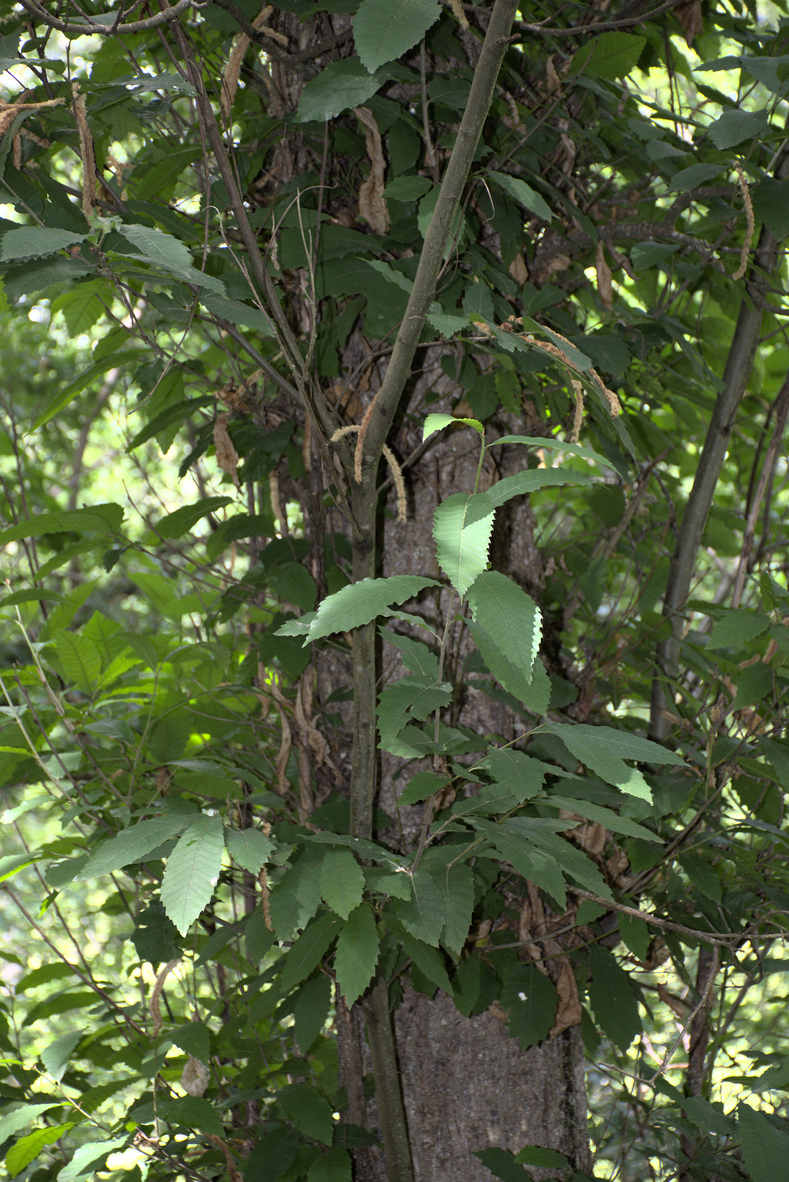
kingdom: Plantae
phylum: Tracheophyta
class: Magnoliopsida
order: Fagales
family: Fagaceae
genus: Castanea
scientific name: Castanea sativa
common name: Sweet chestnut
